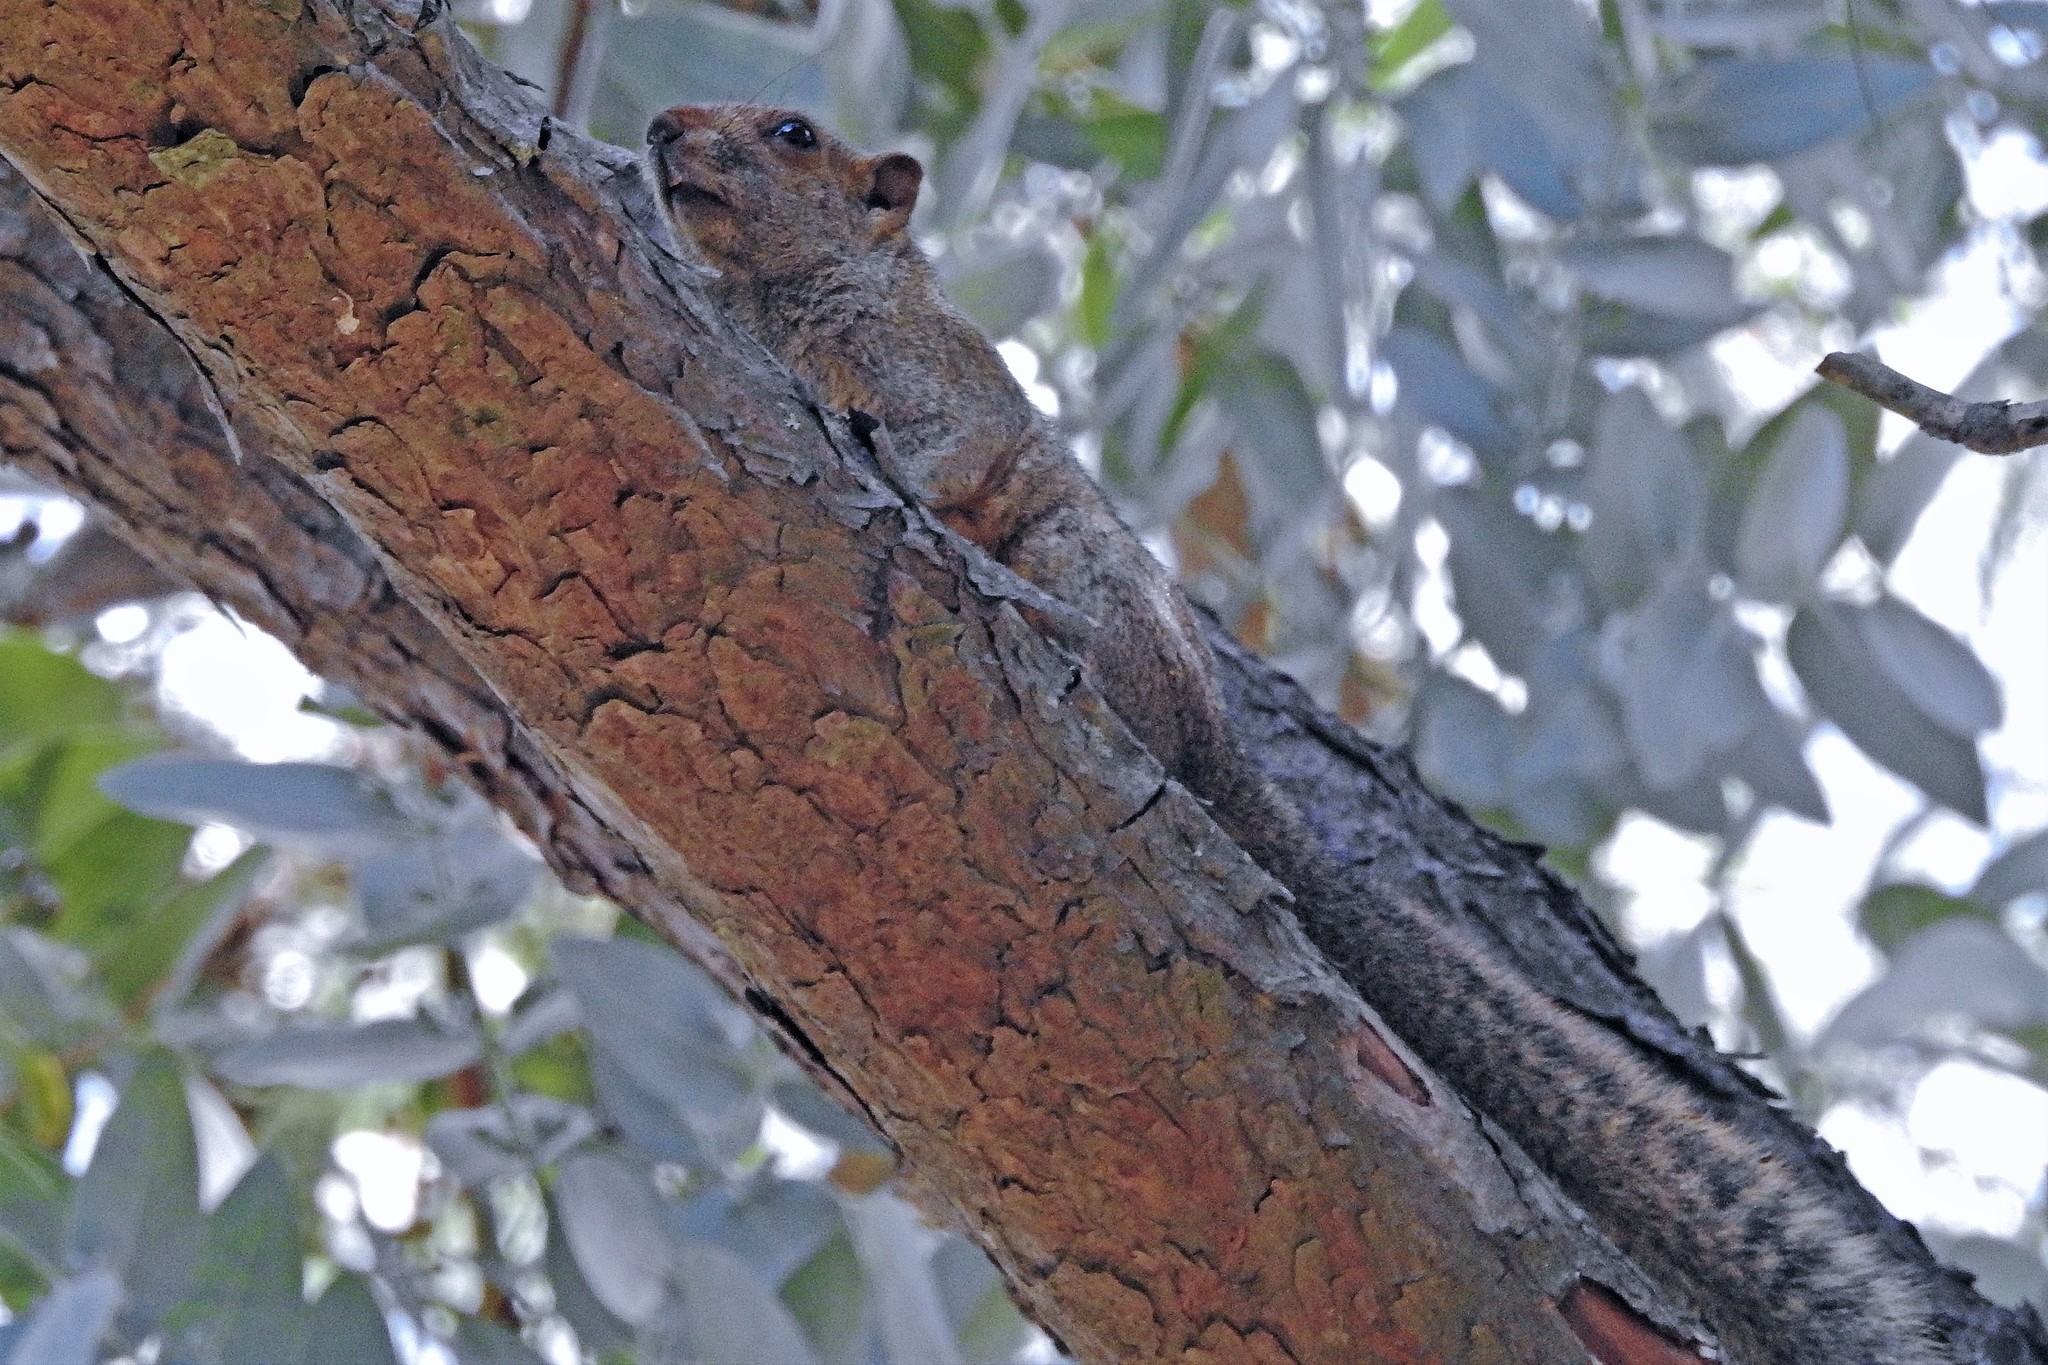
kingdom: Animalia
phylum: Chordata
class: Mammalia
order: Rodentia
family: Sciuridae
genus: Callosciurus
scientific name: Callosciurus erythraeus
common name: Pallas's squirrel
